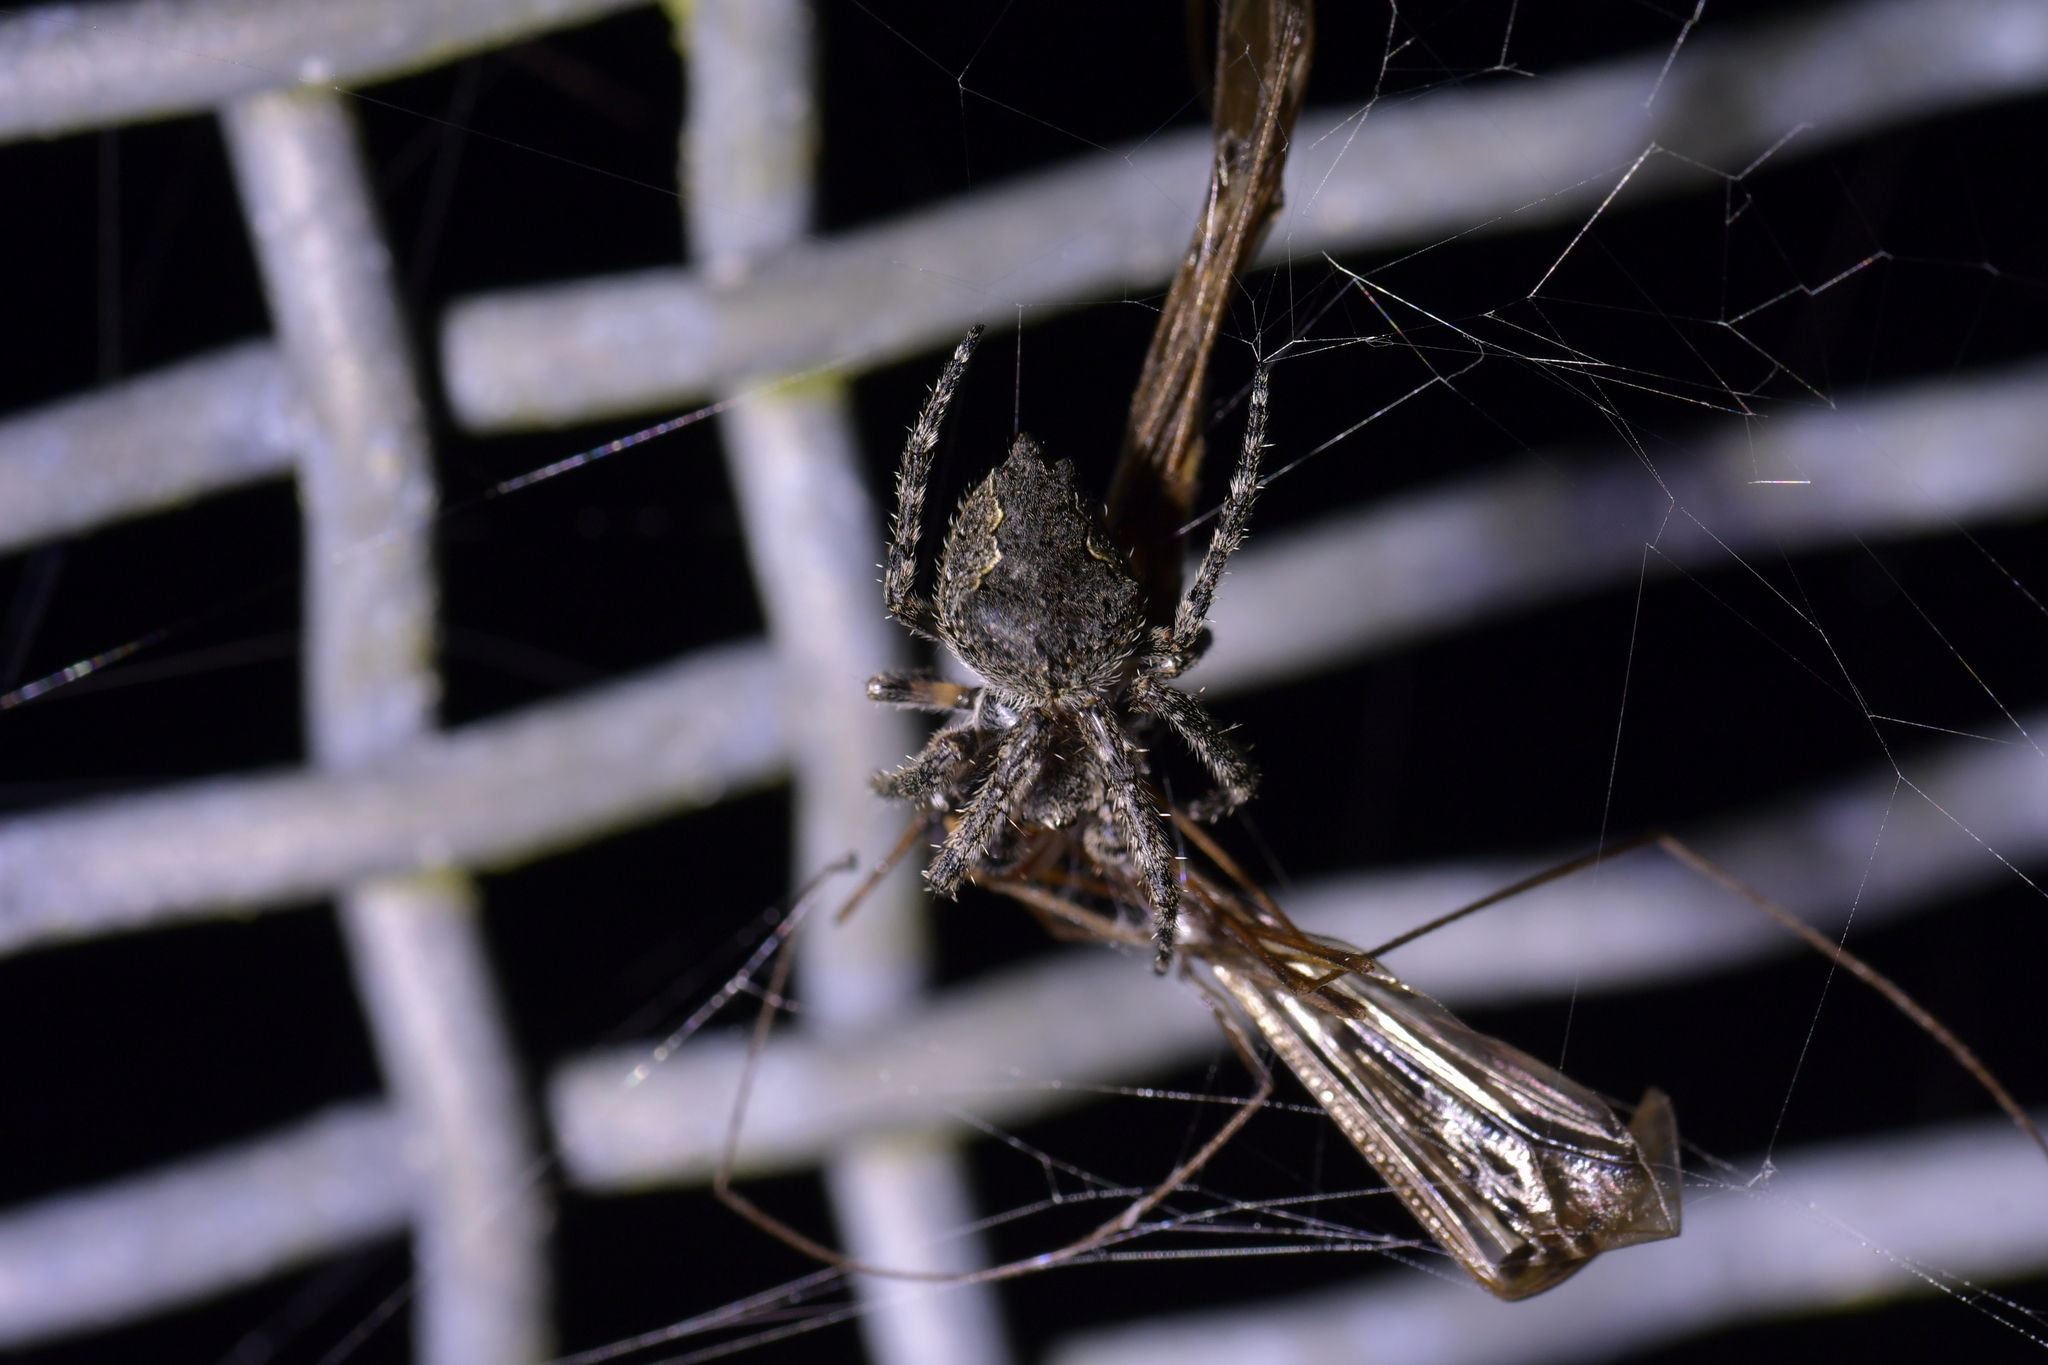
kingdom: Animalia
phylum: Arthropoda
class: Arachnida
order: Araneae
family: Araneidae
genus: Eriophora
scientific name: Eriophora pustulosa
